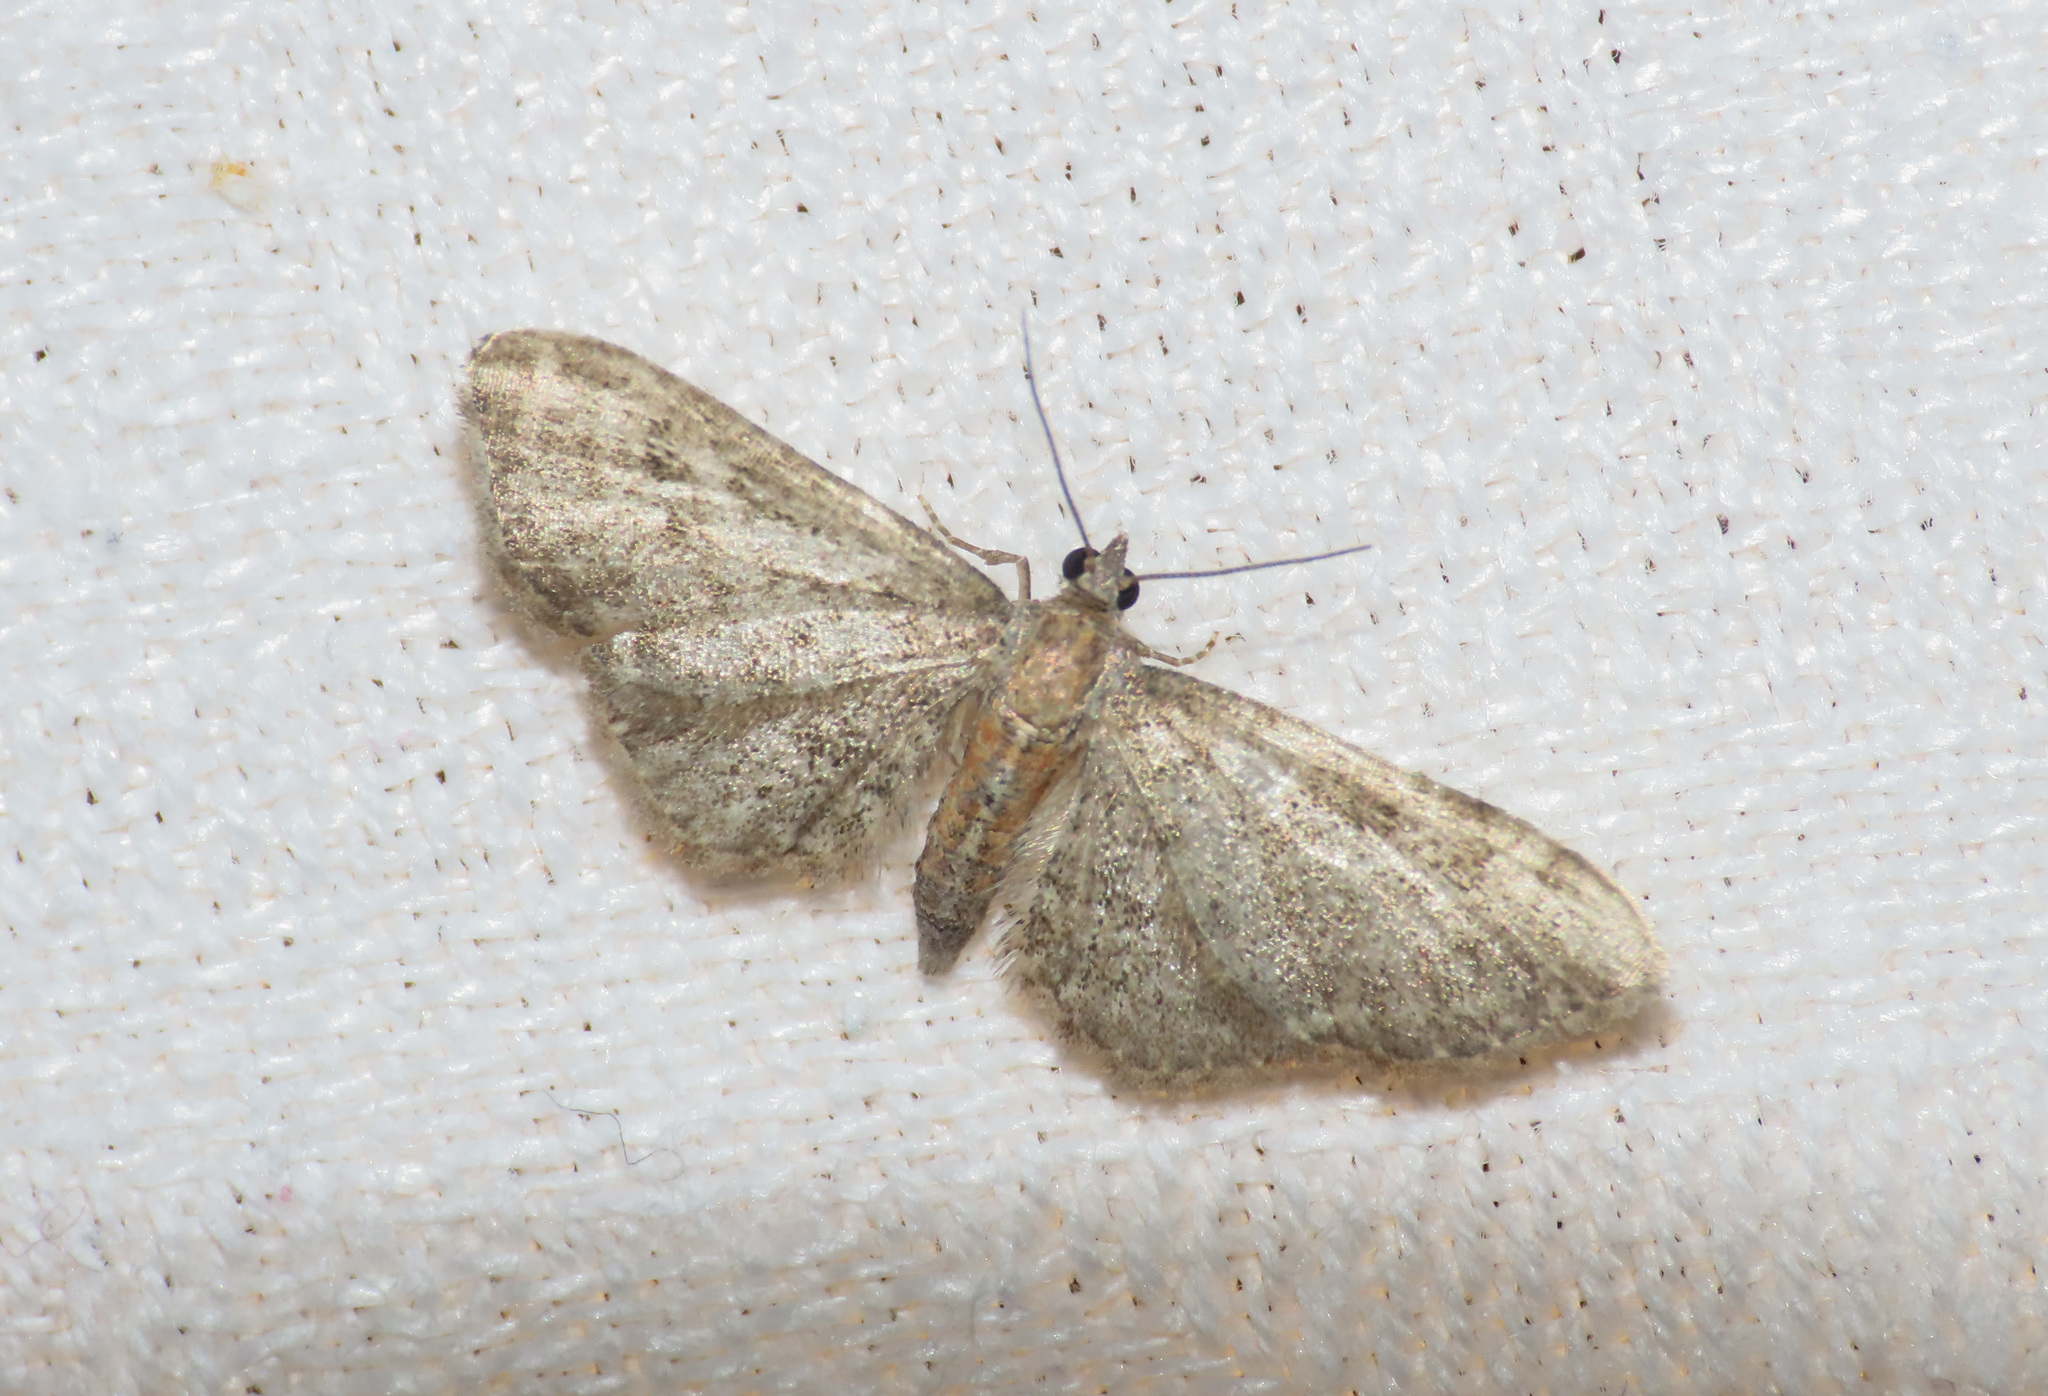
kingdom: Animalia
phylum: Arthropoda
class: Insecta
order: Lepidoptera
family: Geometridae
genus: Eupithecia
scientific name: Eupithecia haworthiata
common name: Haworth's pug
